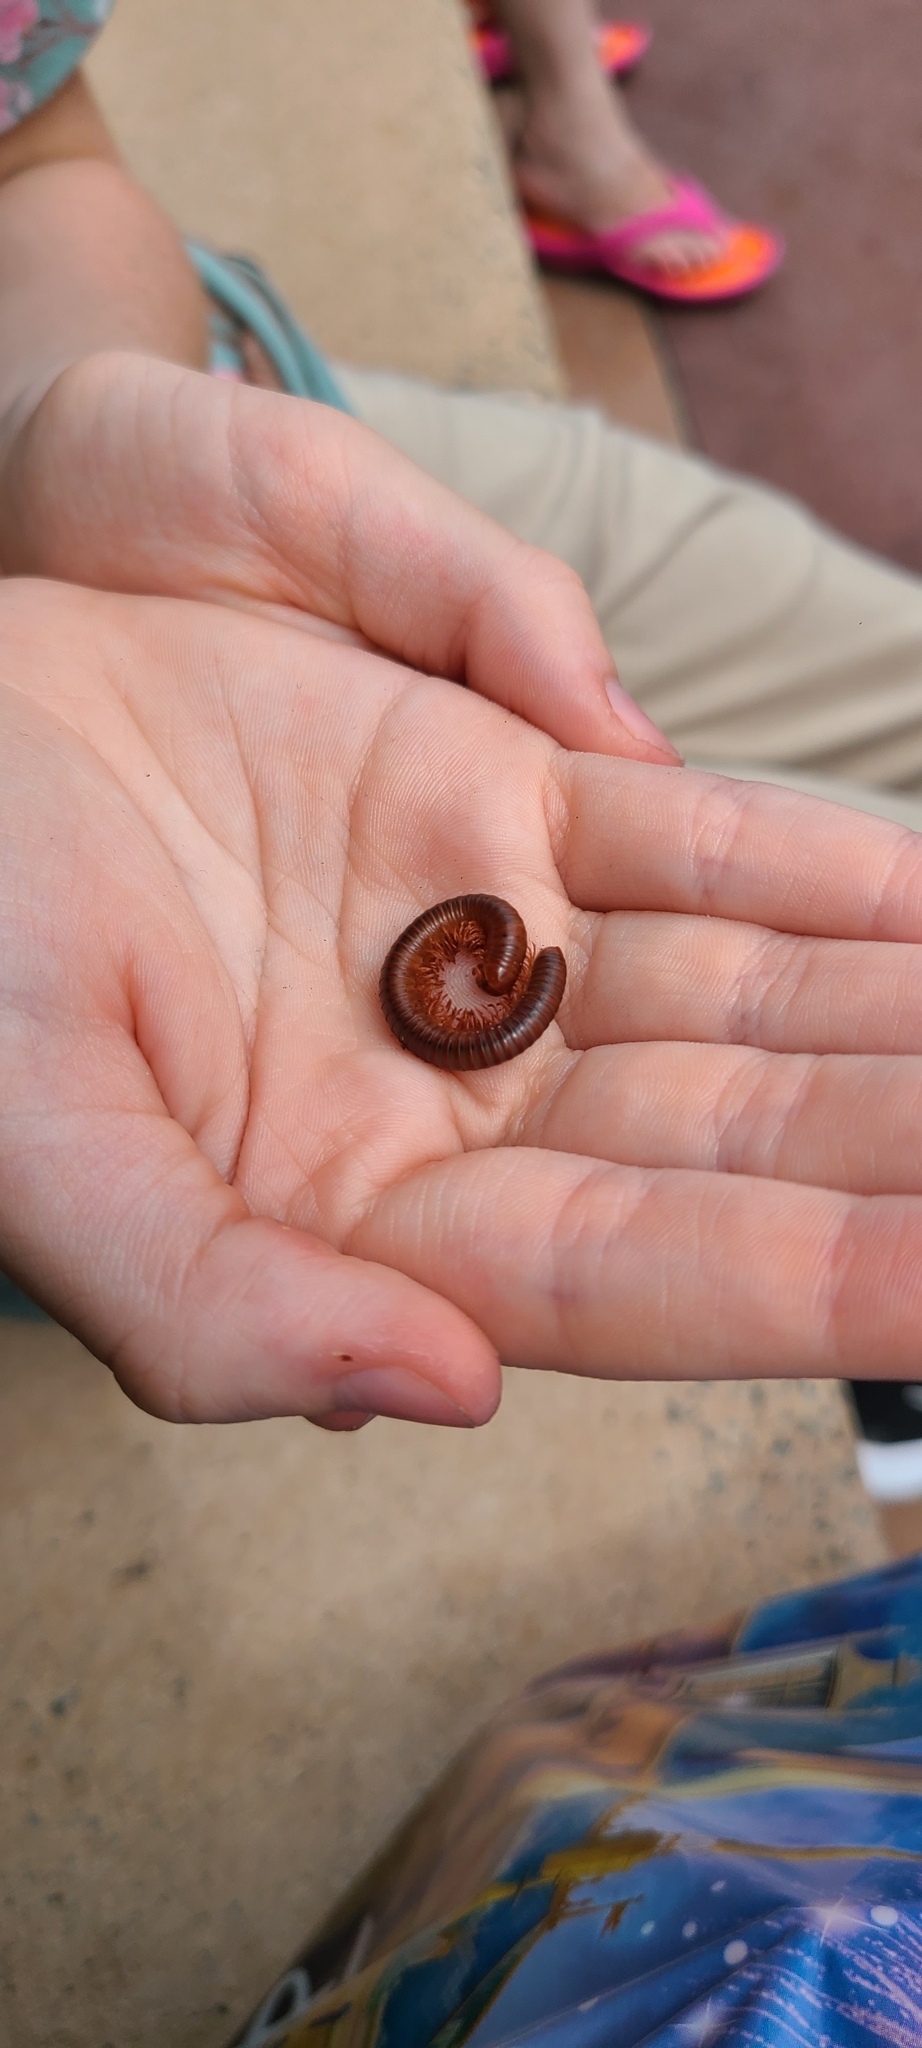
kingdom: Animalia
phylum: Arthropoda
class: Diplopoda
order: Spirobolida
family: Pachybolidae
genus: Trigoniulus
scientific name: Trigoniulus corallinus
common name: Millipede
